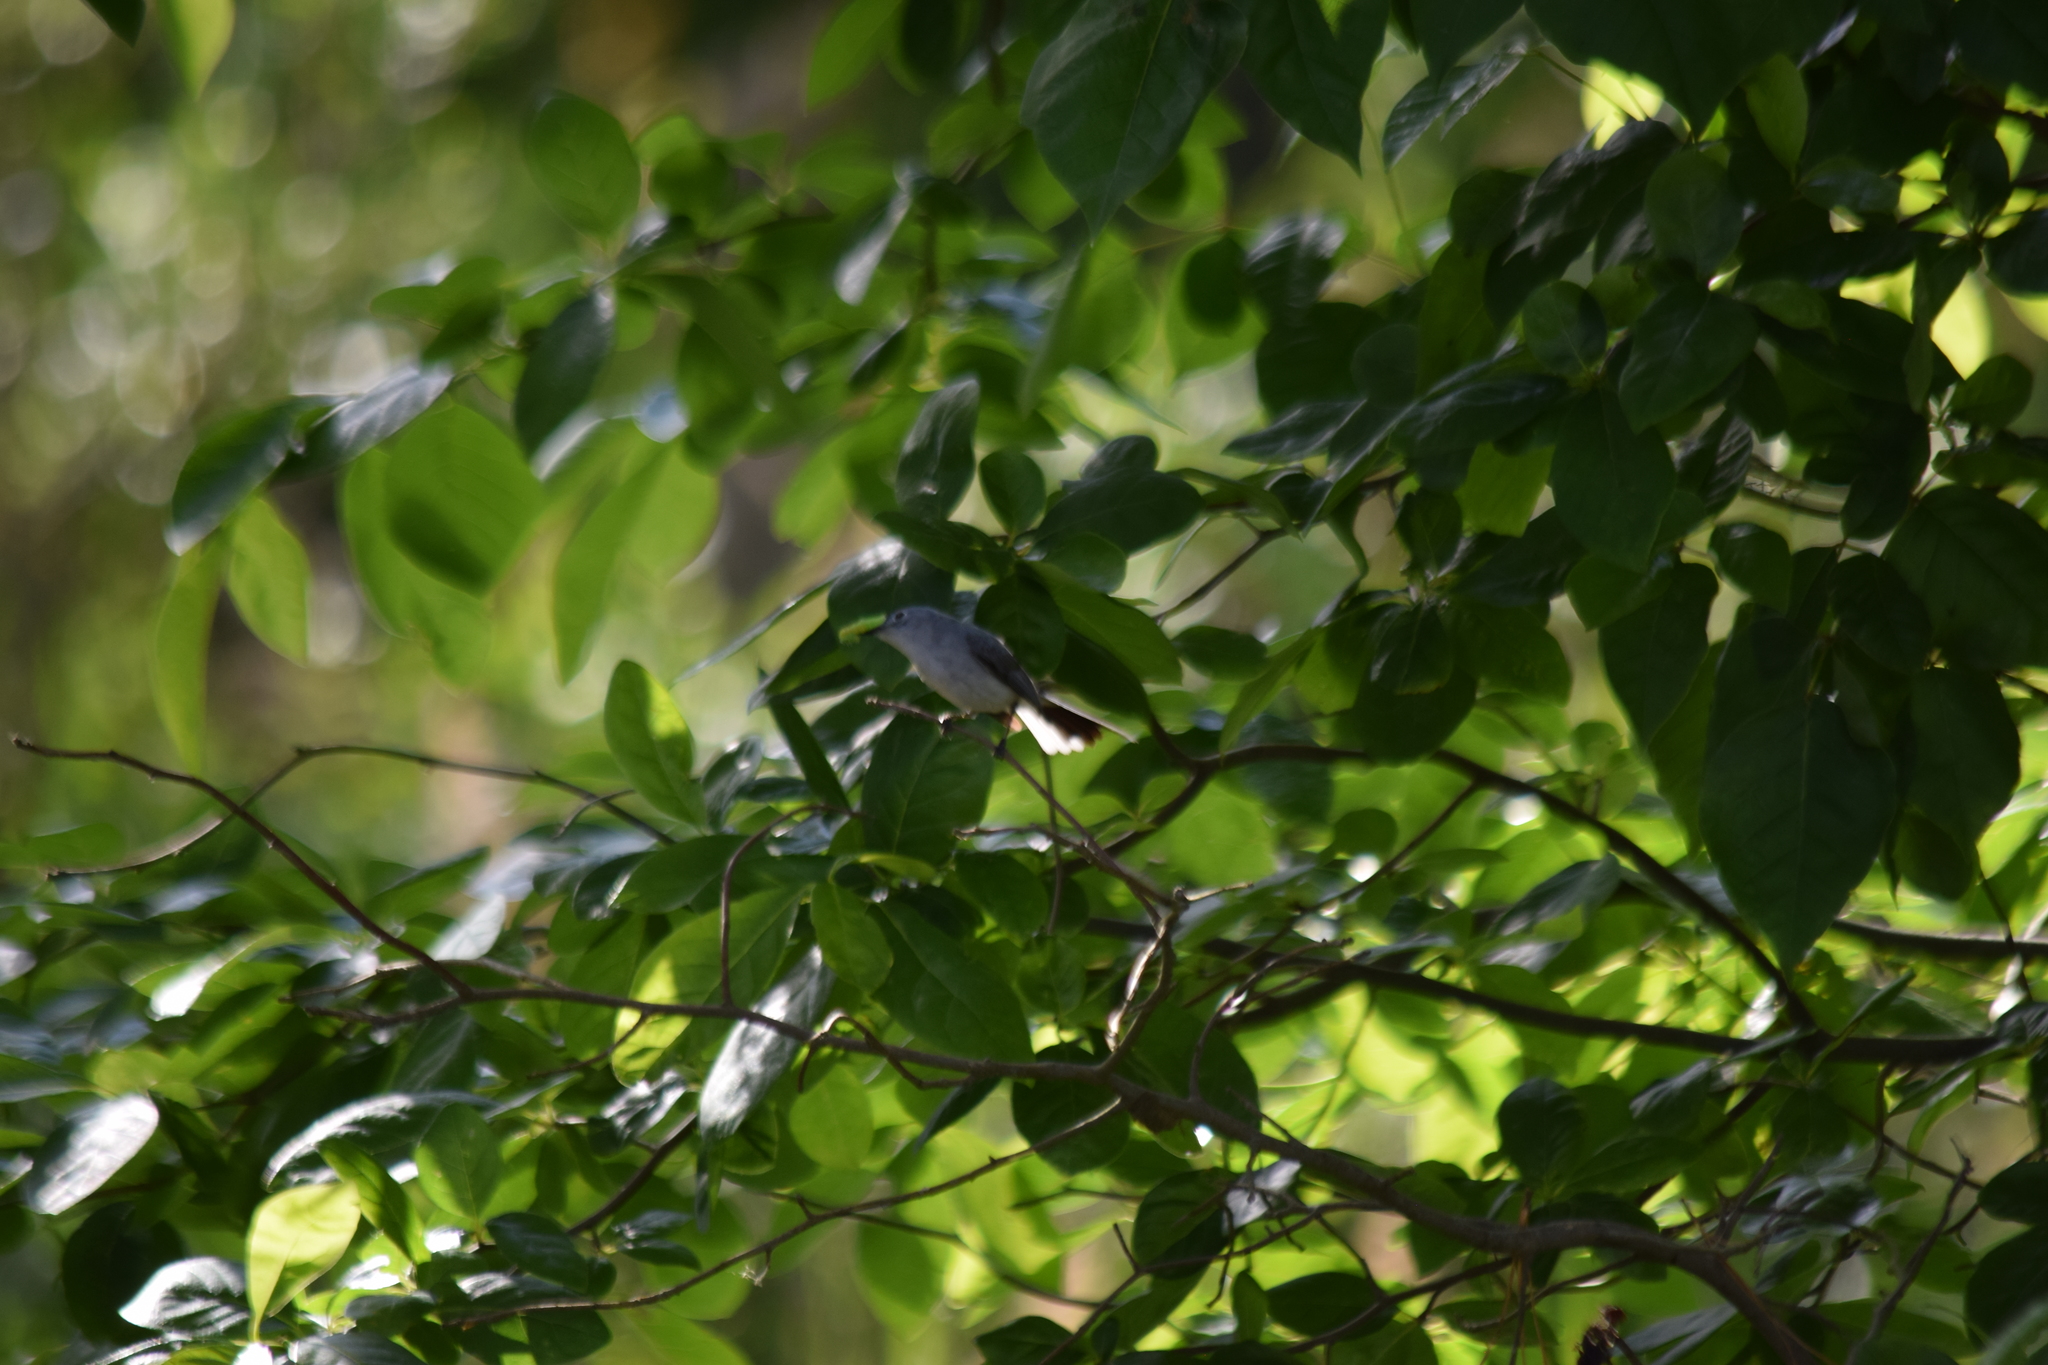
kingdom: Animalia
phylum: Chordata
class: Aves
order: Passeriformes
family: Polioptilidae
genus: Polioptila
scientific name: Polioptila caerulea
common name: Blue-gray gnatcatcher
